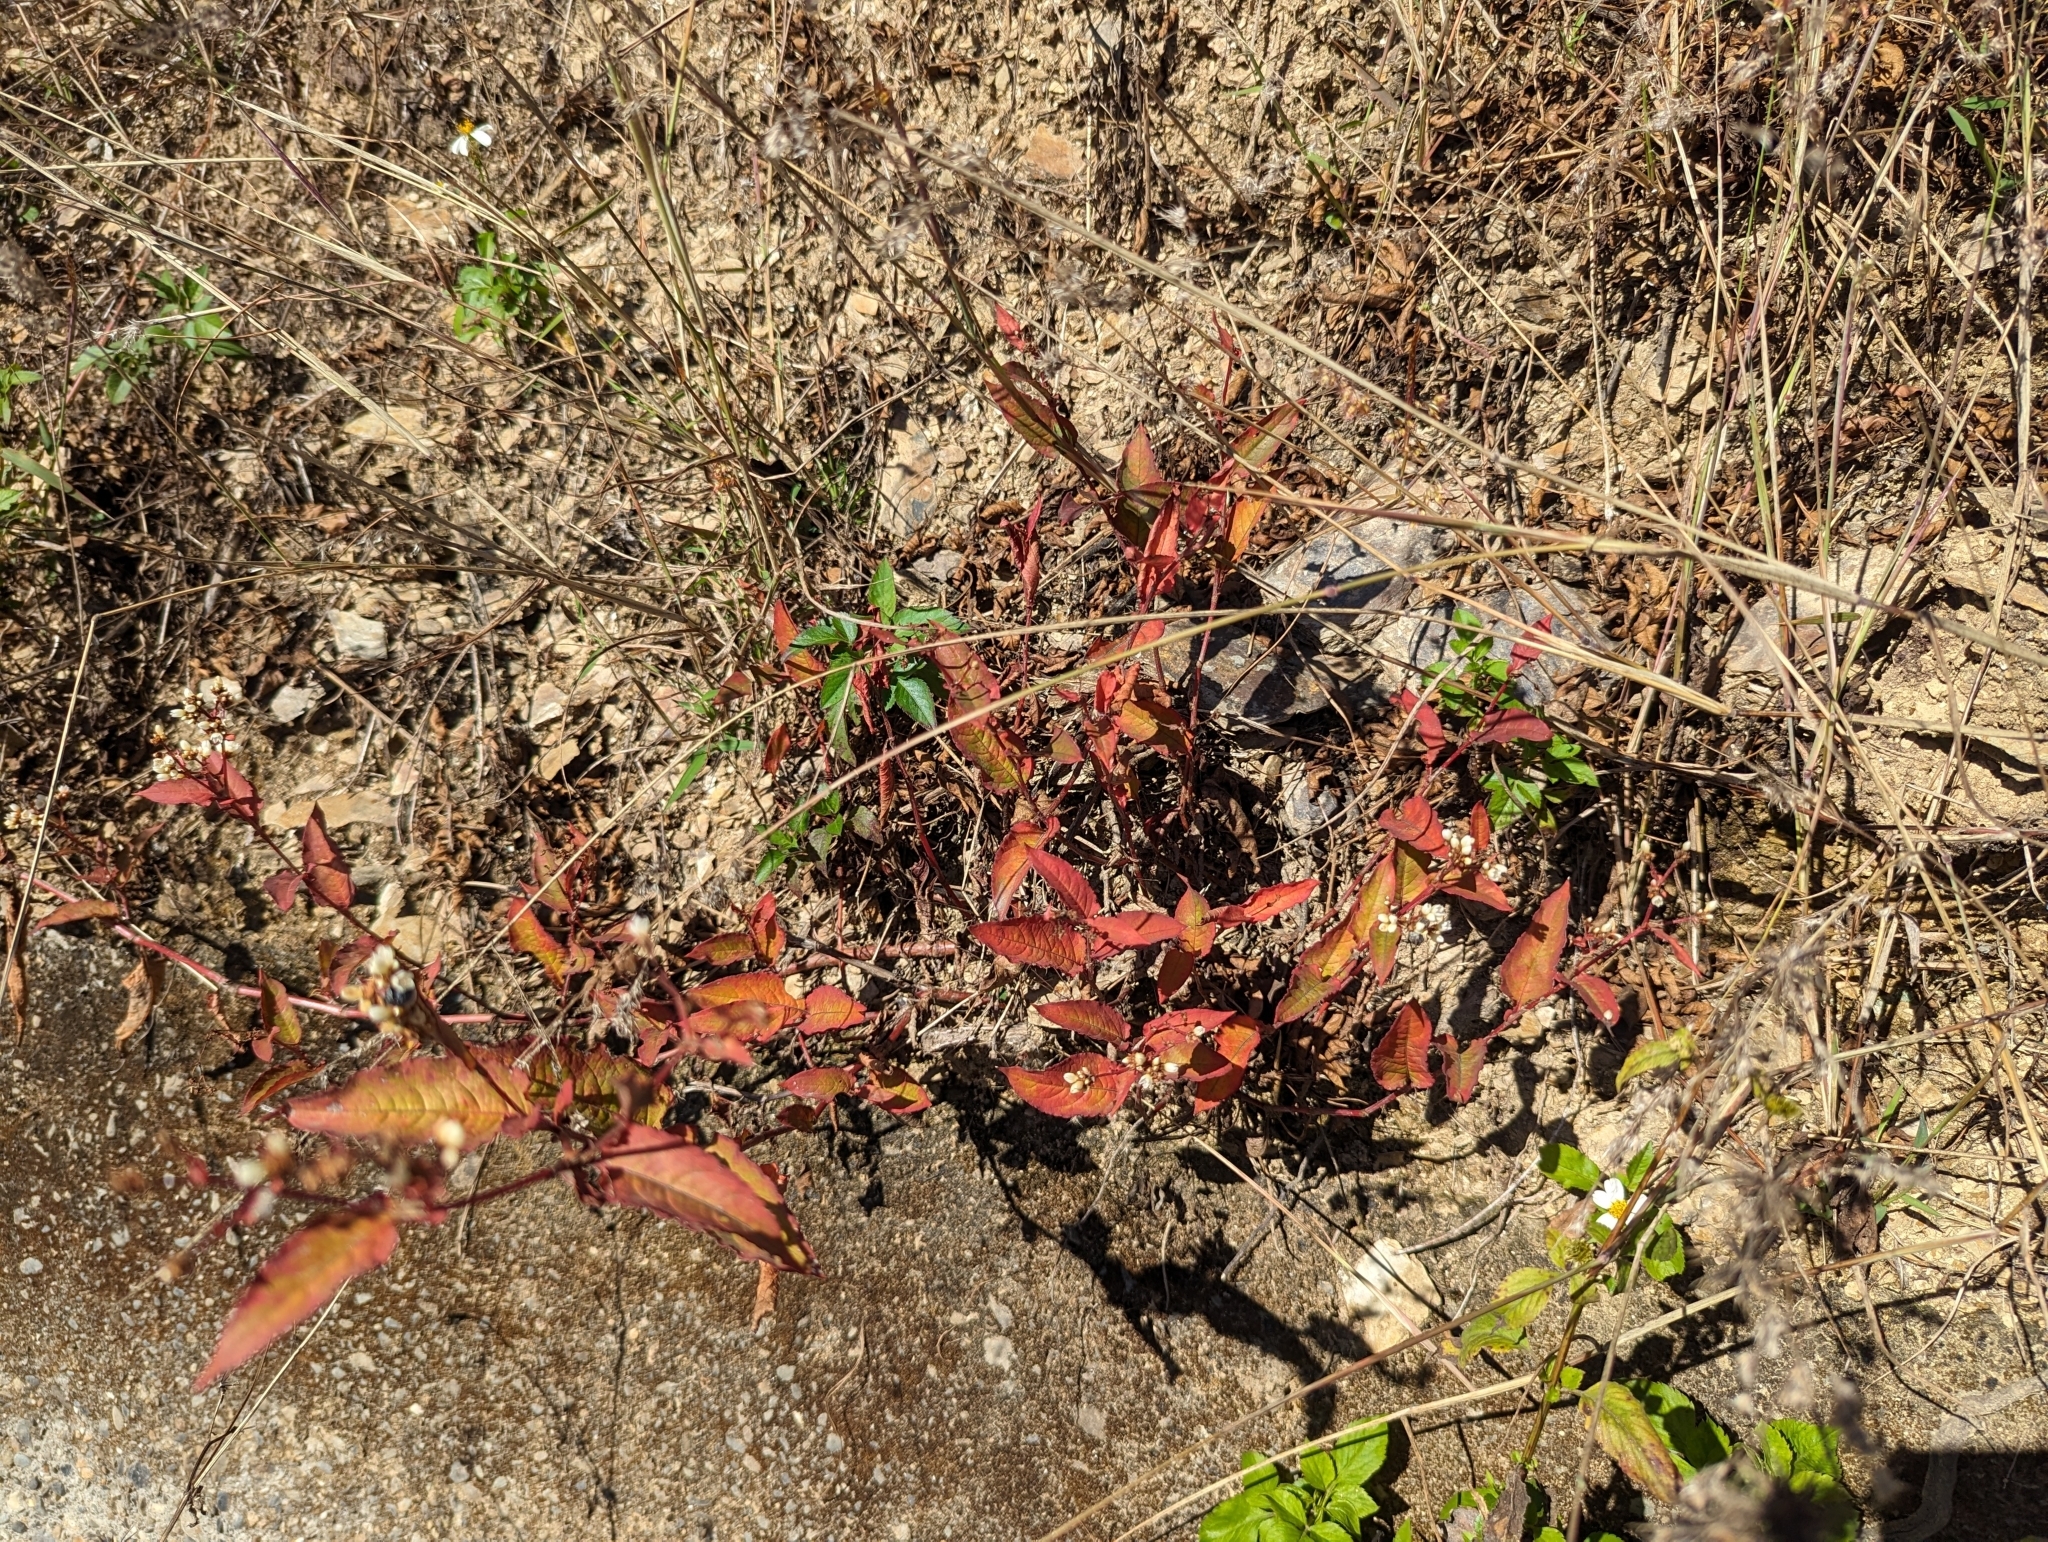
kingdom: Plantae
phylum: Tracheophyta
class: Magnoliopsida
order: Caryophyllales
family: Polygonaceae
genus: Persicaria
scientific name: Persicaria chinensis
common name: Chinese knotweed
